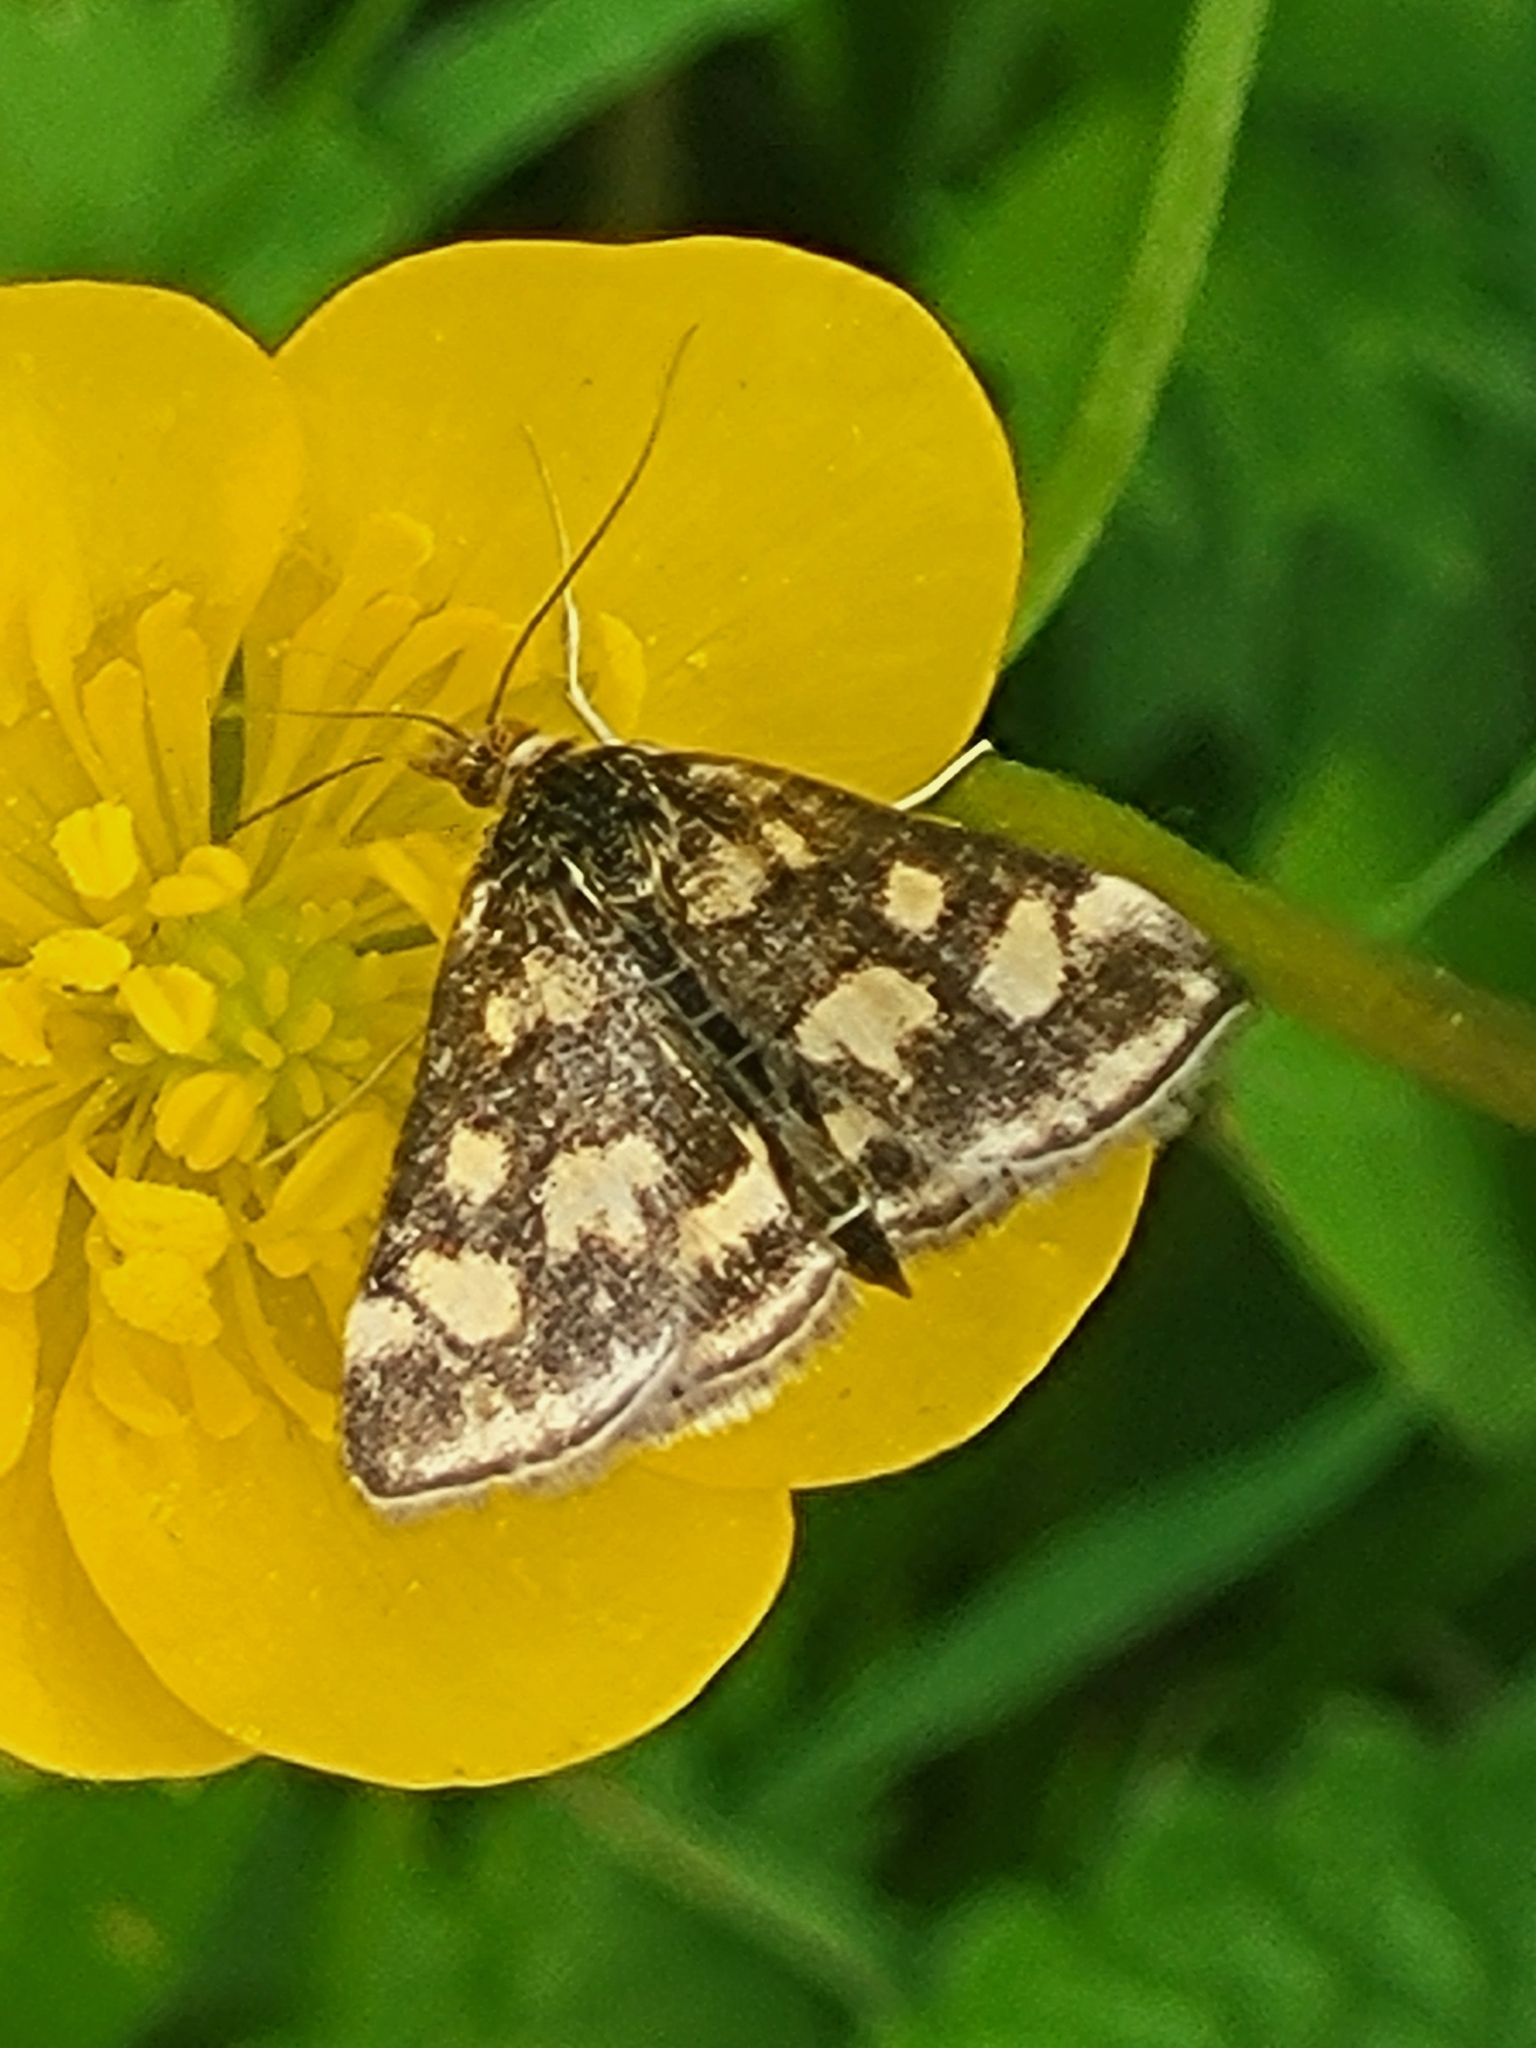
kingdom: Animalia
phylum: Arthropoda
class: Insecta
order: Lepidoptera
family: Crambidae
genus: Pyrausta
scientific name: Pyrausta purpuralis
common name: Common purple & gold
